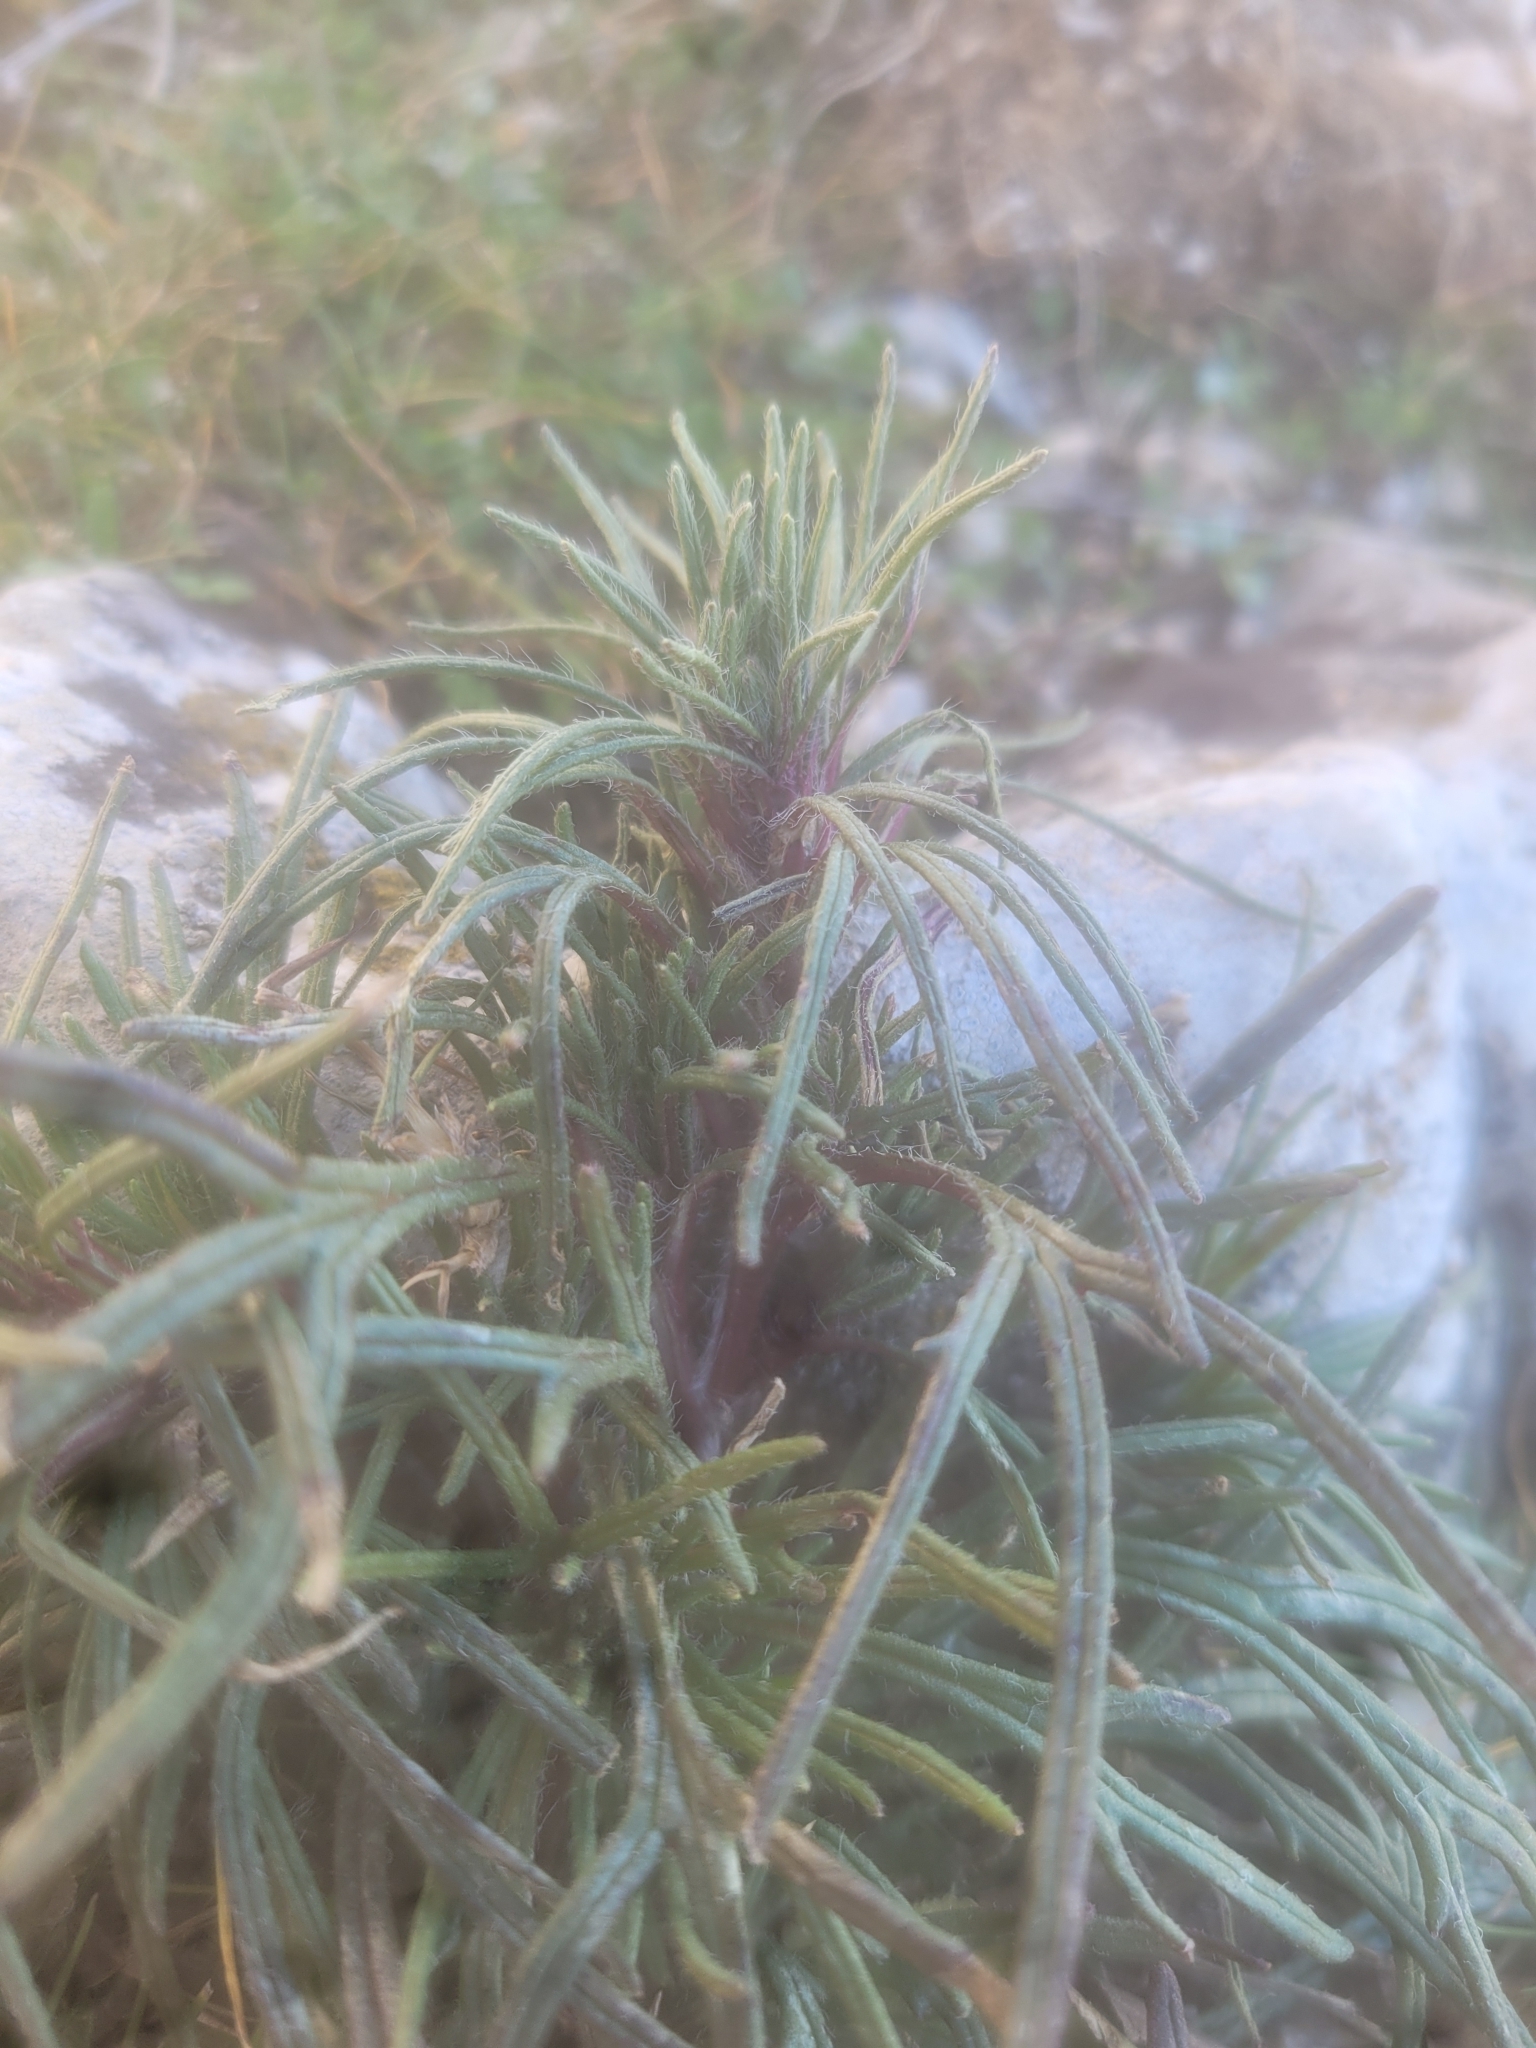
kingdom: Plantae
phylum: Tracheophyta
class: Magnoliopsida
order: Lamiales
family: Lamiaceae
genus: Ajuga
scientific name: Ajuga chamaepitys
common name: Ground-pine
